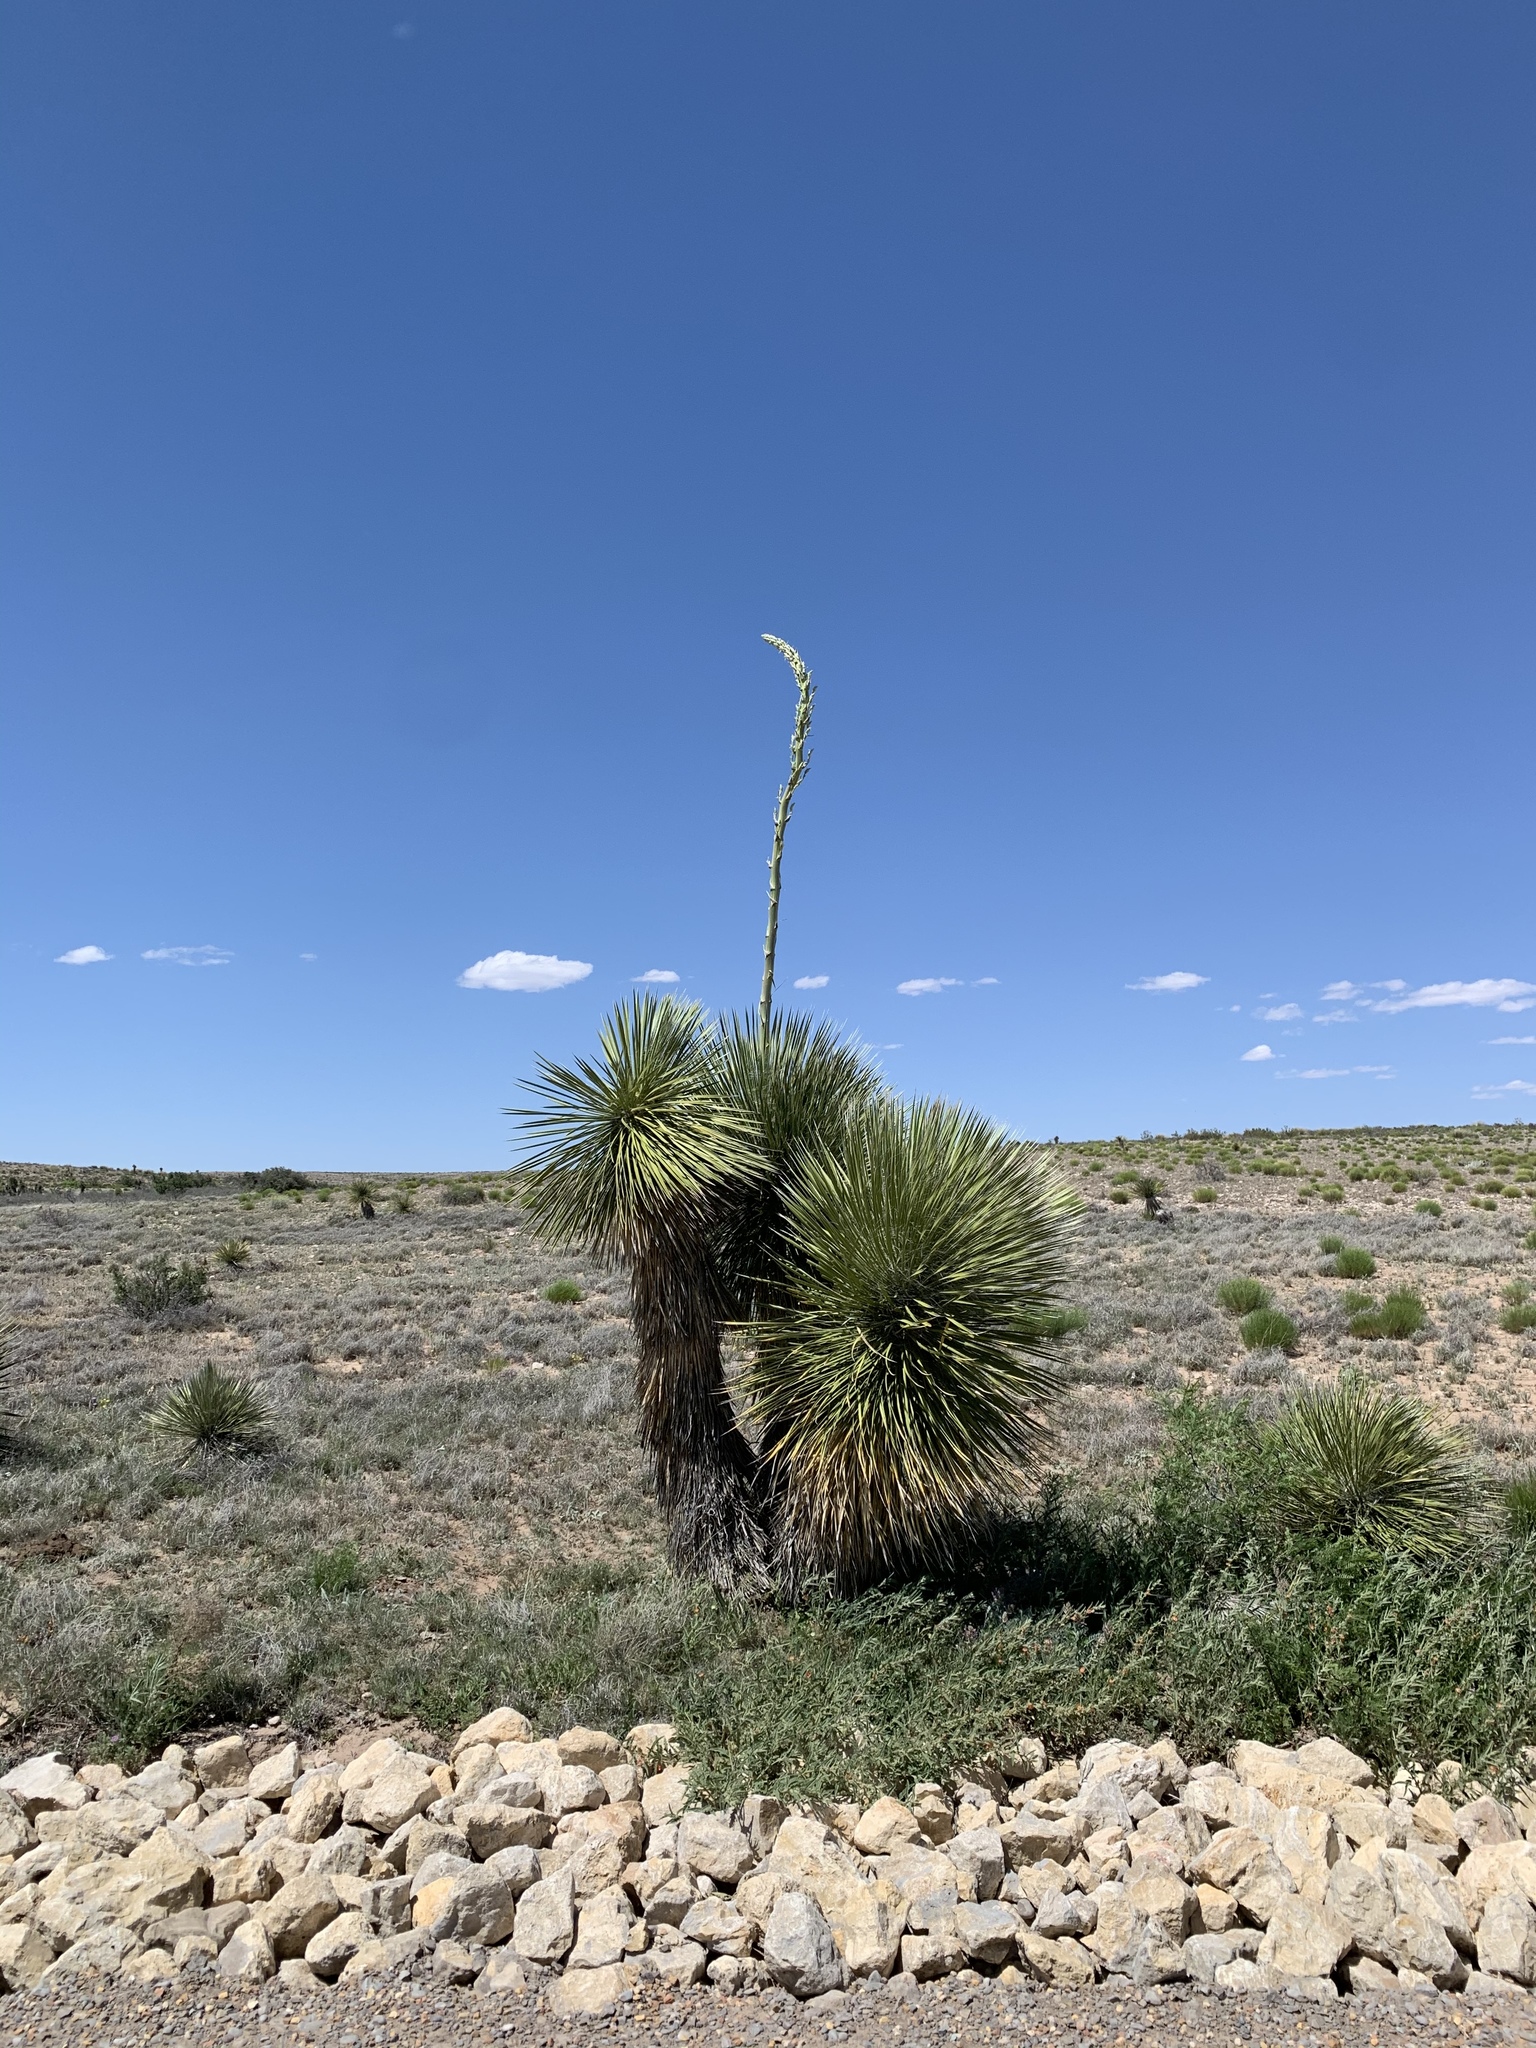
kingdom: Plantae
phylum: Tracheophyta
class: Liliopsida
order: Asparagales
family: Asparagaceae
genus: Yucca
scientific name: Yucca elata
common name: Palmella
